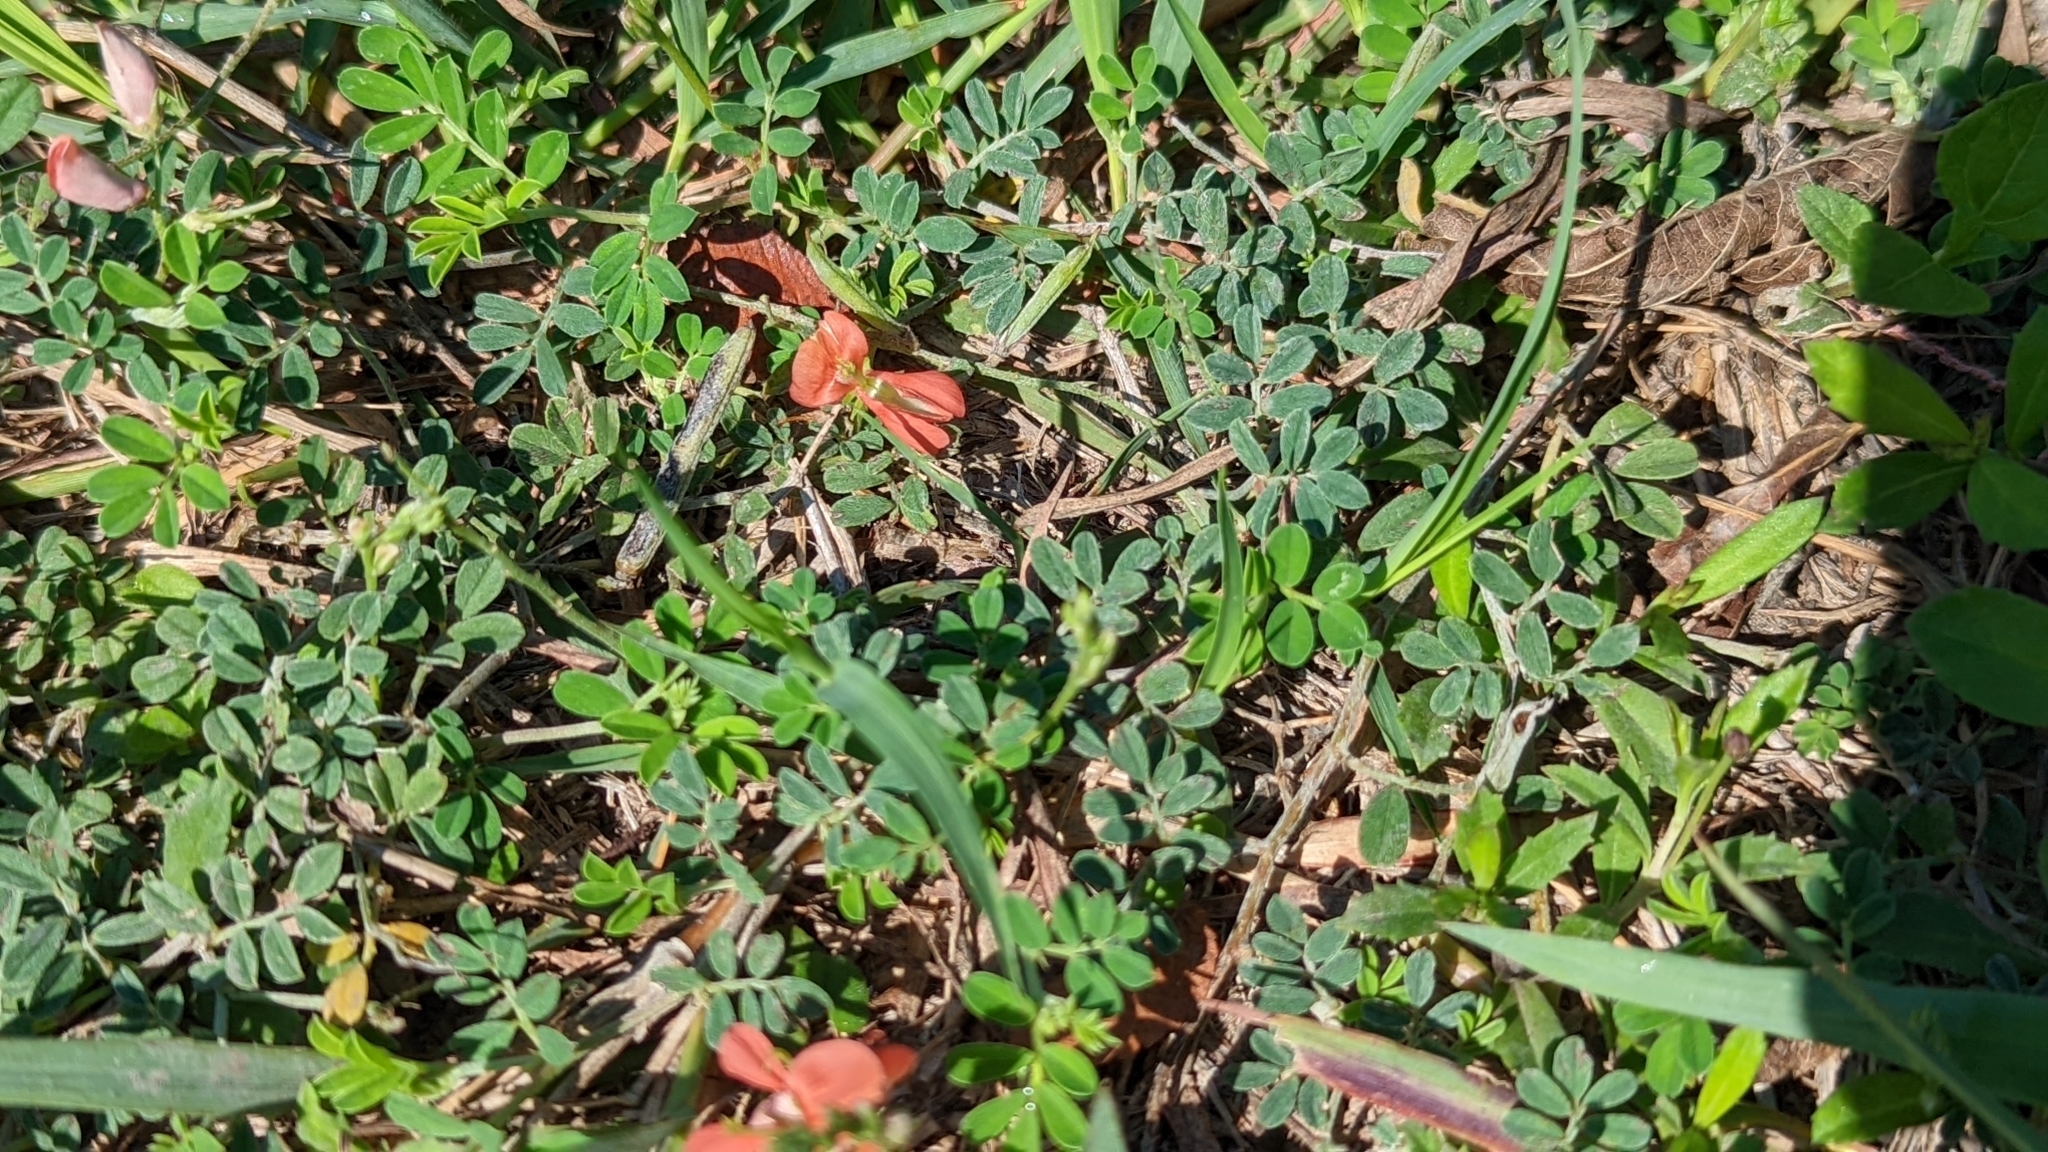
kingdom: Plantae
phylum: Tracheophyta
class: Magnoliopsida
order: Fabales
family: Fabaceae
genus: Indigofera
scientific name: Indigofera miniata
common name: Coast indigo
